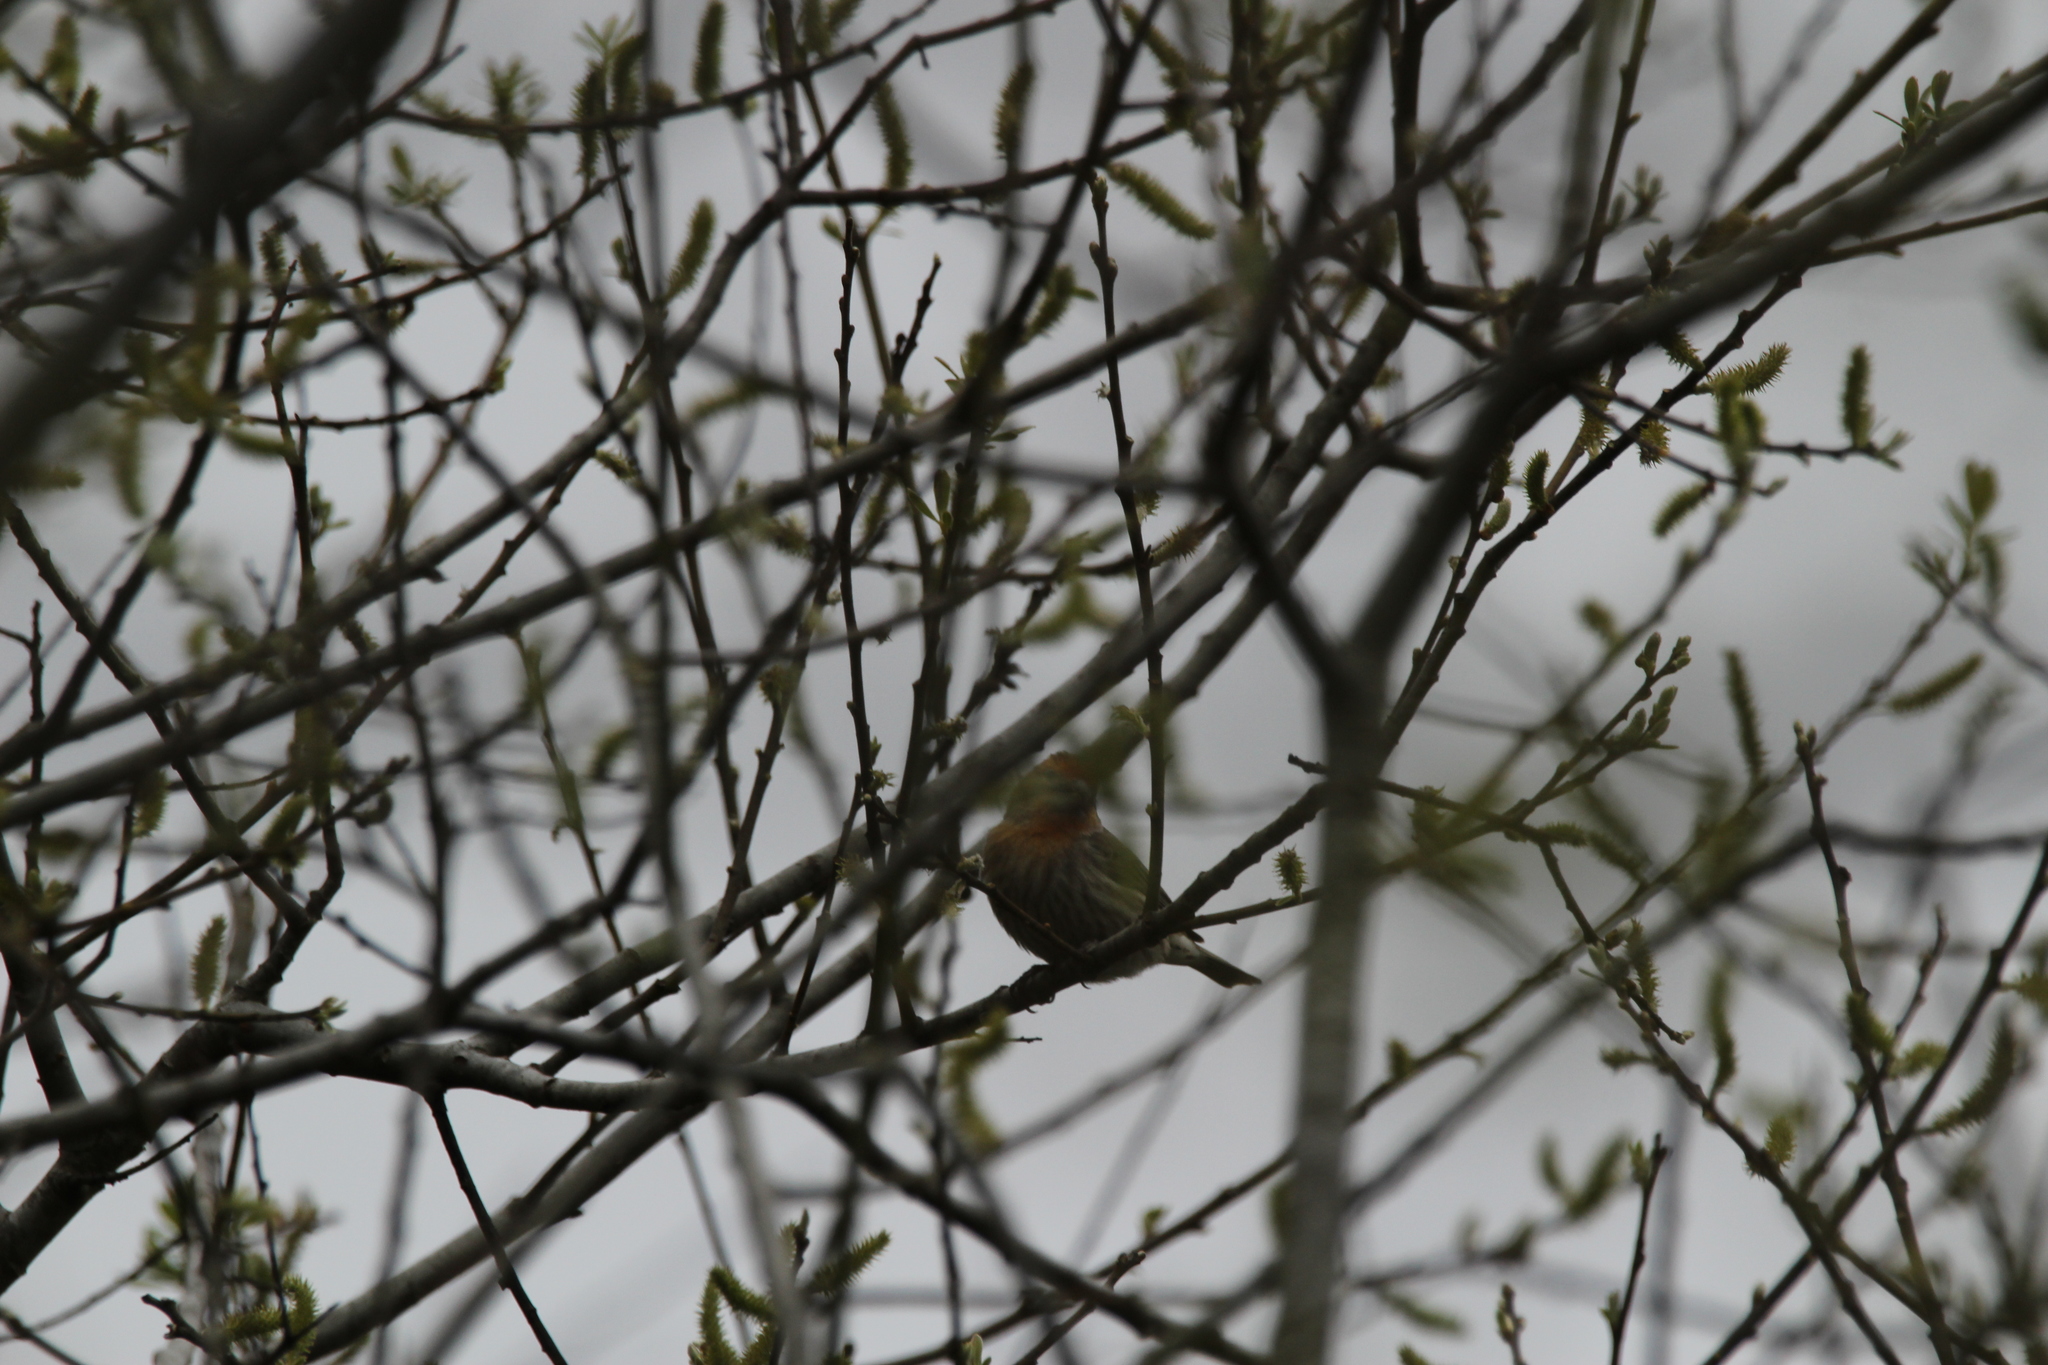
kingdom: Animalia
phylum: Chordata
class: Aves
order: Passeriformes
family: Fringillidae
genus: Haemorhous
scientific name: Haemorhous mexicanus
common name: House finch
